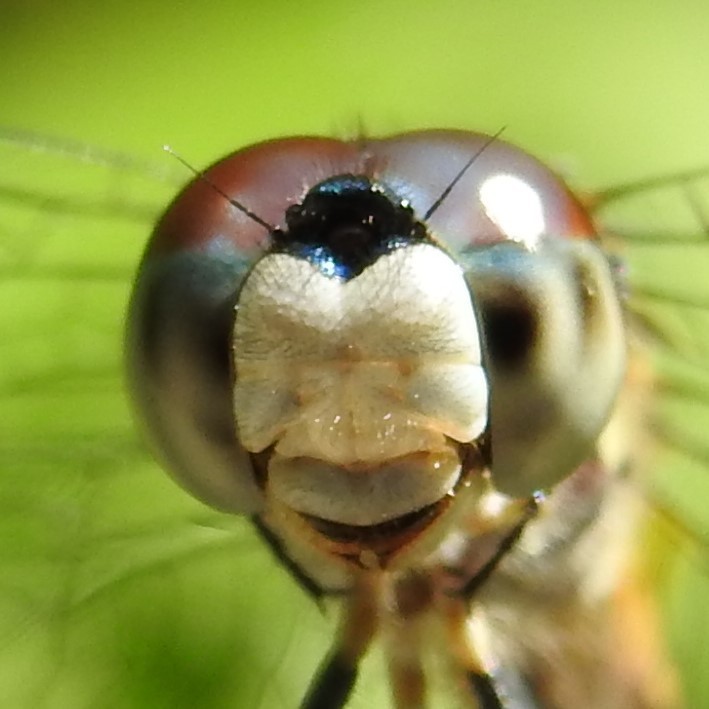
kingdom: Animalia
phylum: Arthropoda
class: Insecta
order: Odonata
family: Libellulidae
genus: Pachydiplax
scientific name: Pachydiplax longipennis
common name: Blue dasher
